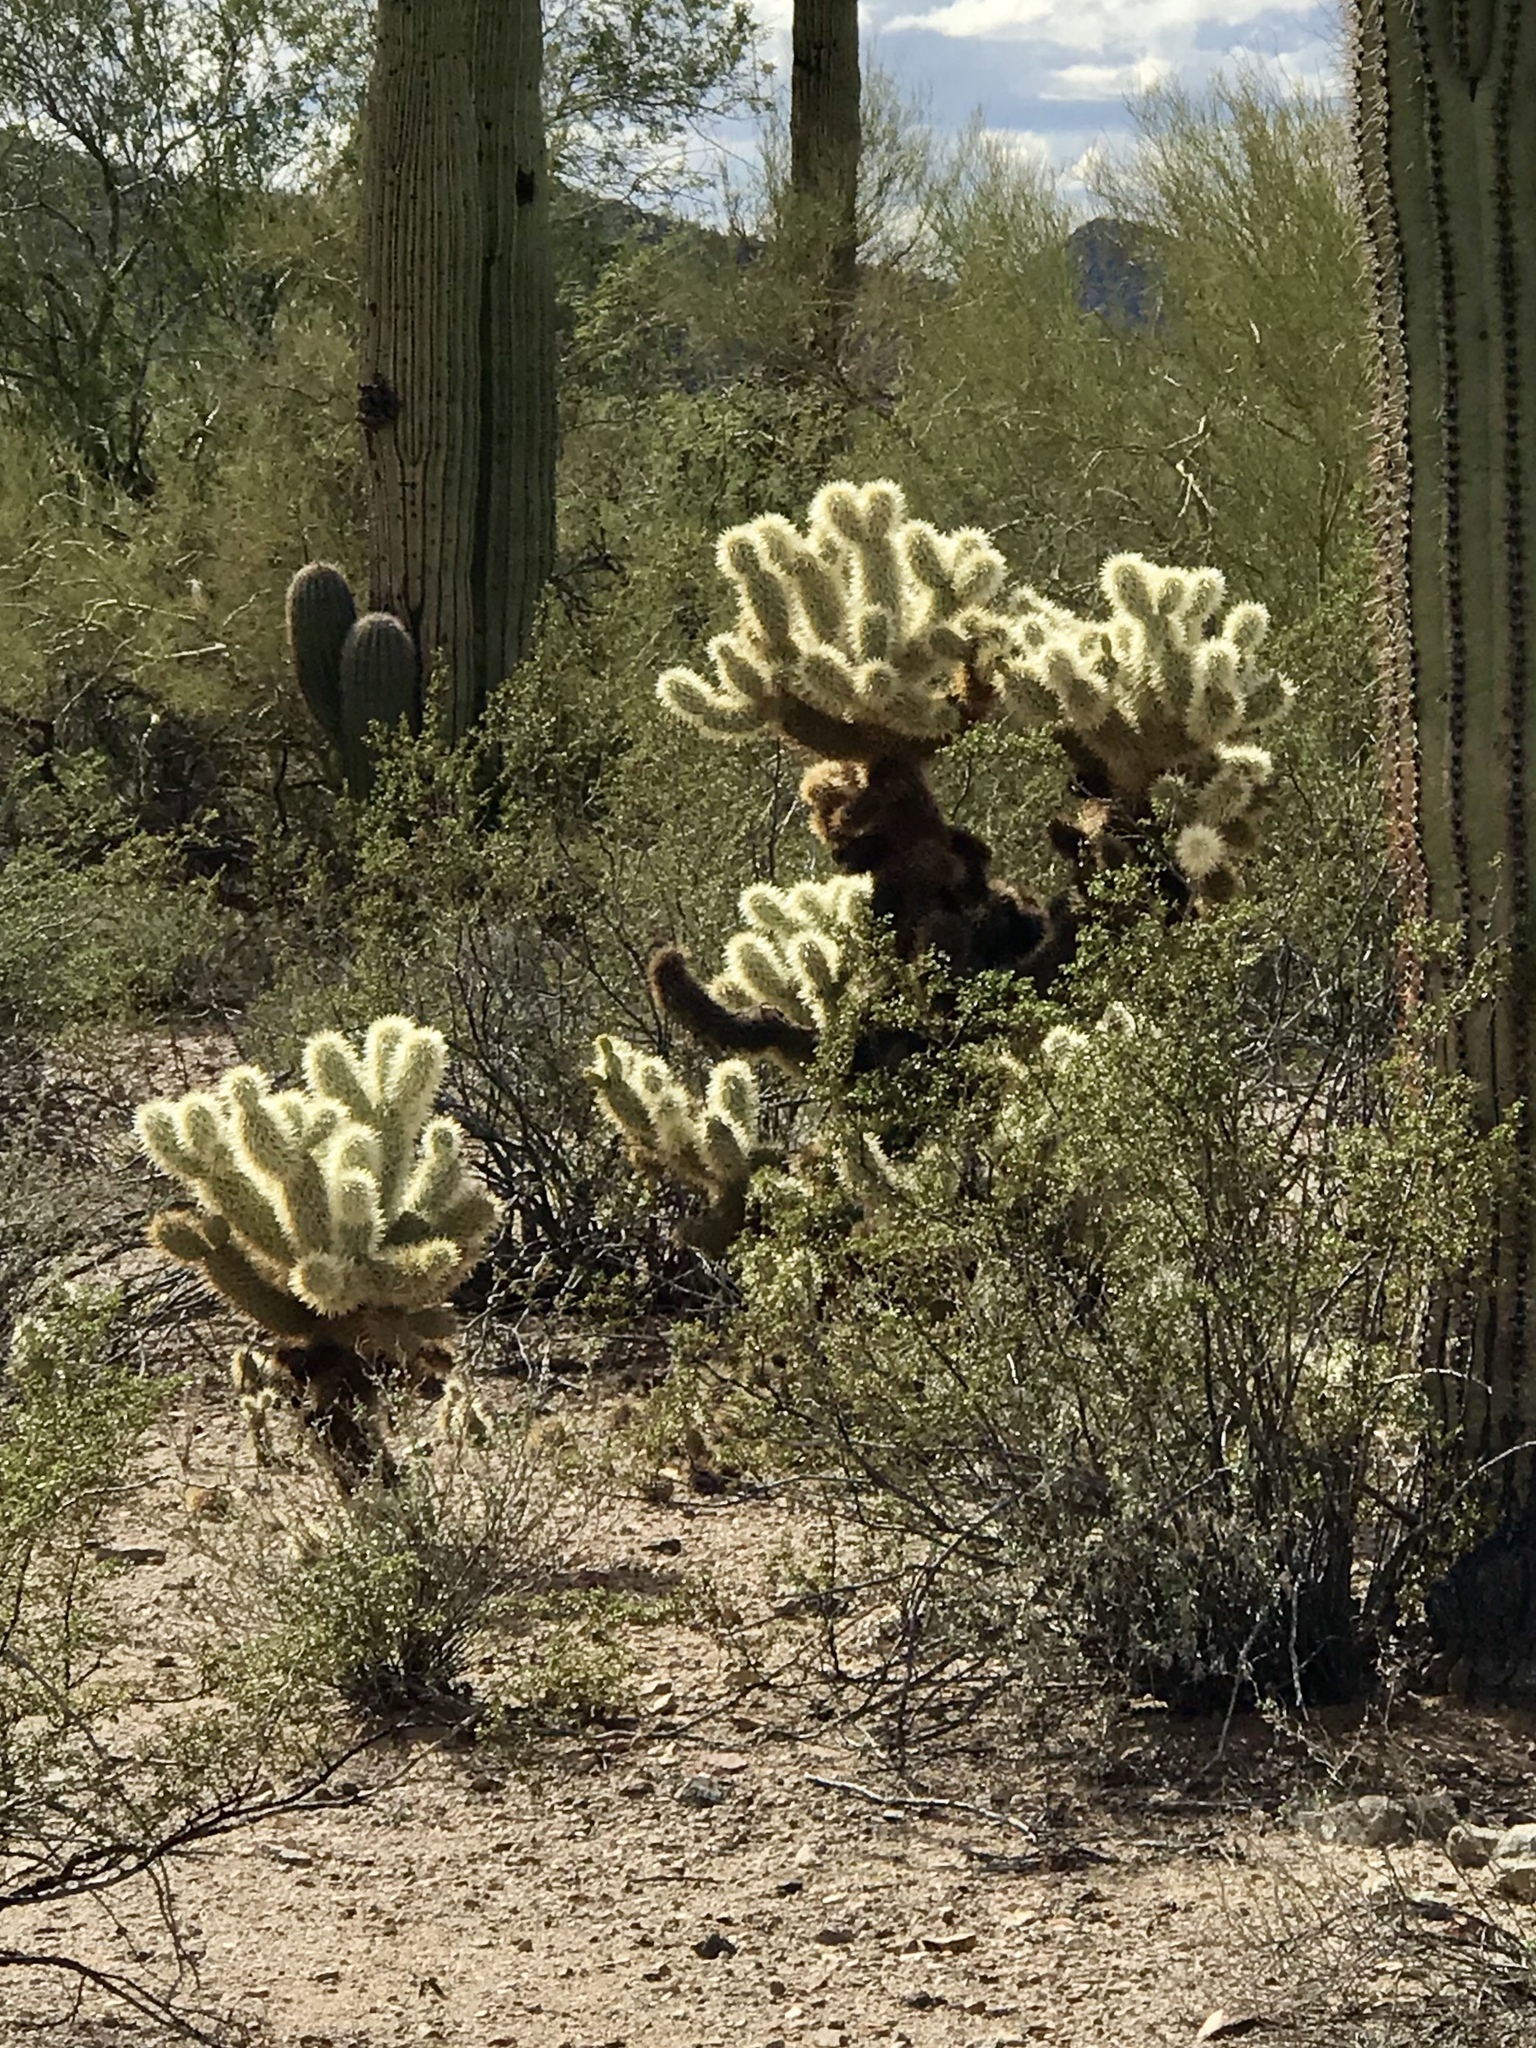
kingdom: Plantae
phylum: Tracheophyta
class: Magnoliopsida
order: Caryophyllales
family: Cactaceae
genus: Cylindropuntia
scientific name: Cylindropuntia fosbergii
